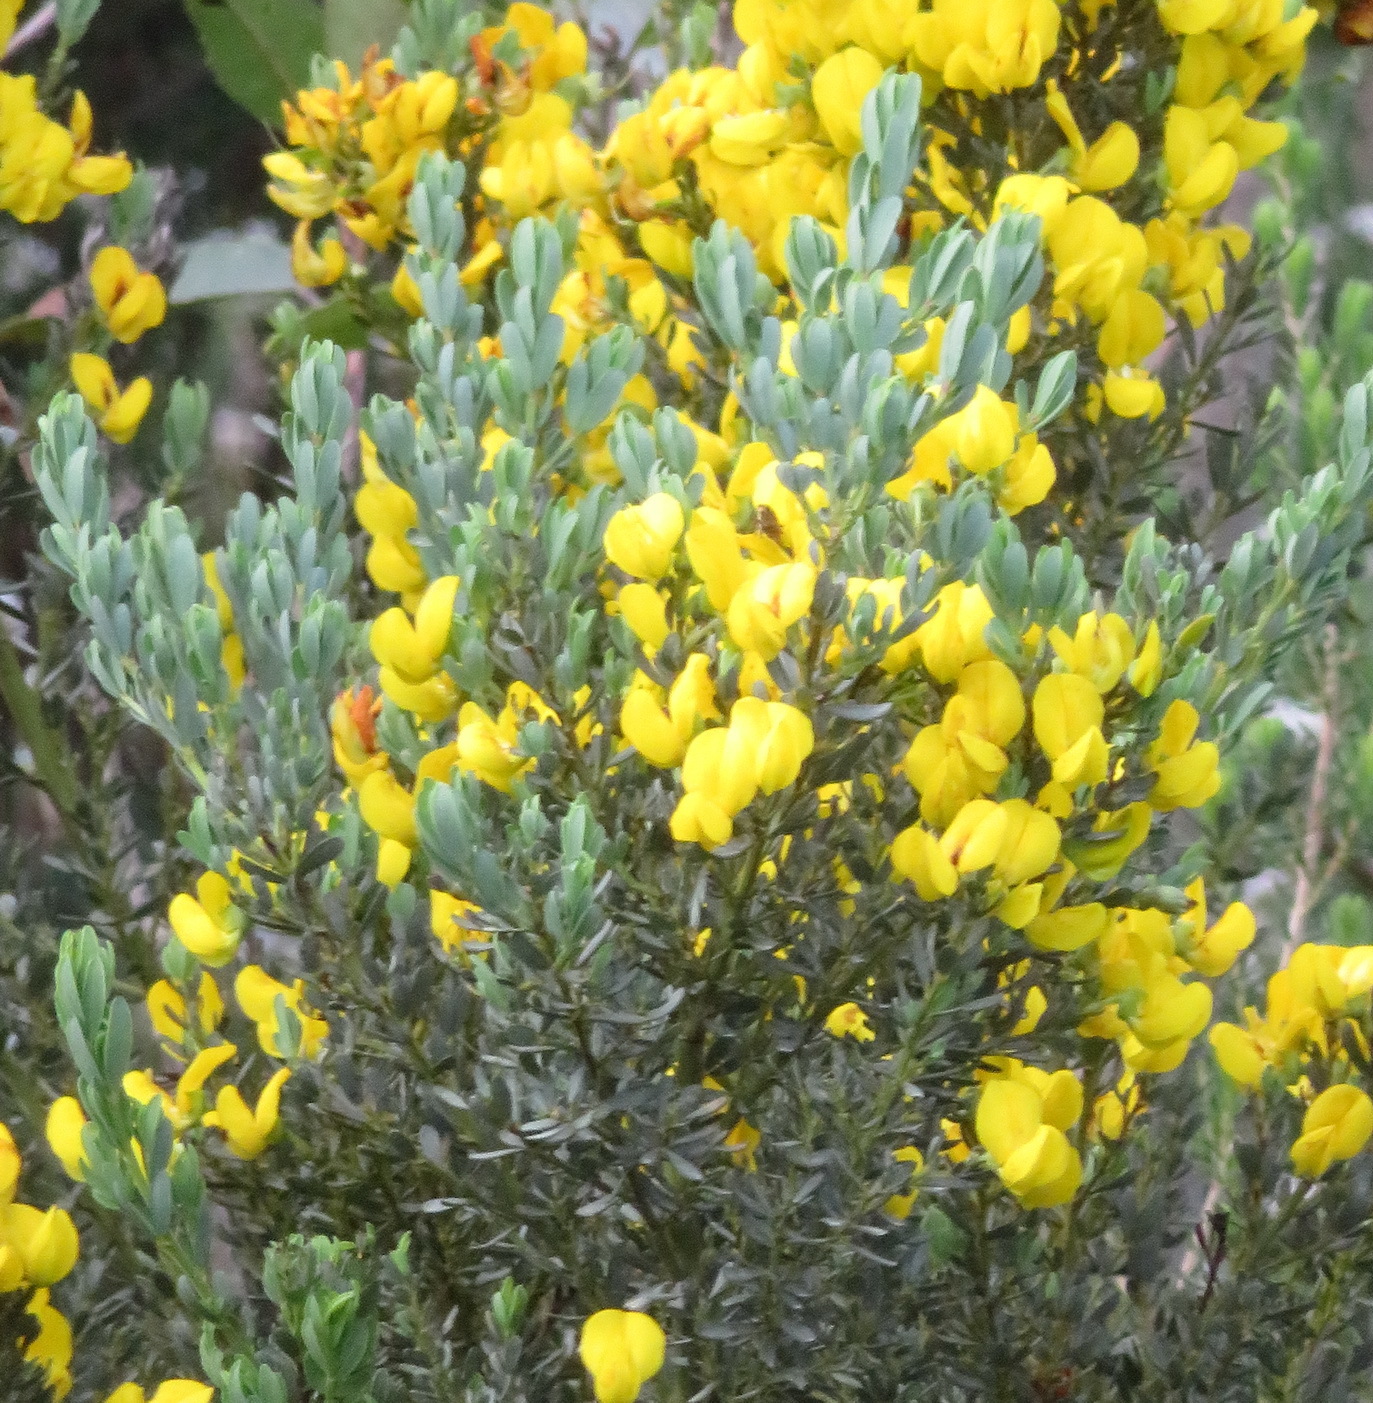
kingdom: Plantae
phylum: Tracheophyta
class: Magnoliopsida
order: Fabales
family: Fabaceae
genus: Cyclopia
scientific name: Cyclopia subternata
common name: Honeybush tea
